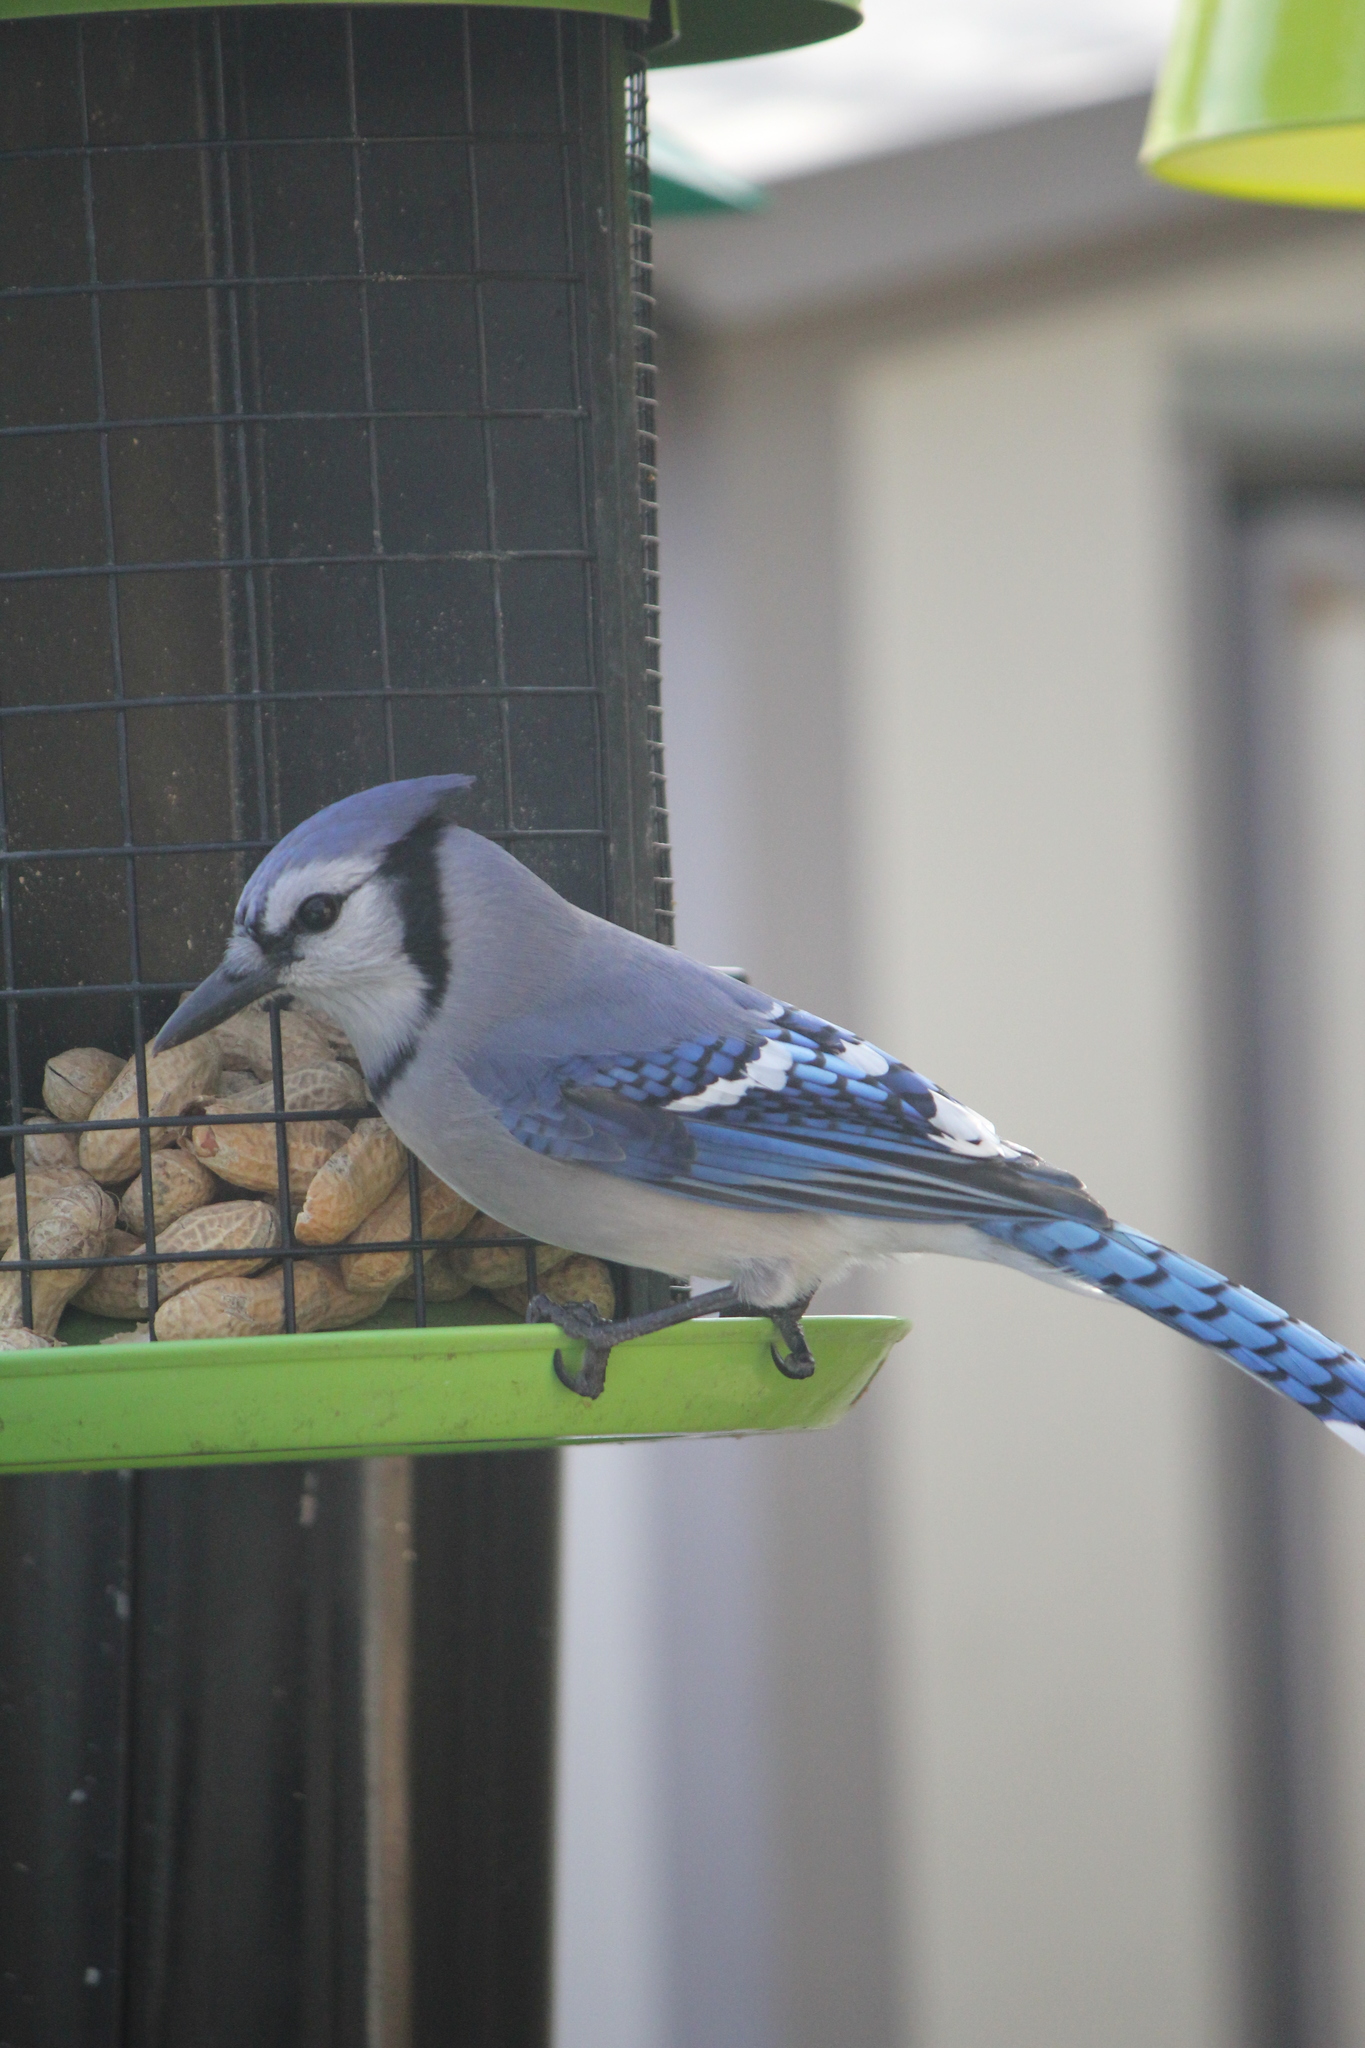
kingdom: Animalia
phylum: Chordata
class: Aves
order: Passeriformes
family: Corvidae
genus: Cyanocitta
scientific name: Cyanocitta cristata
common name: Blue jay
